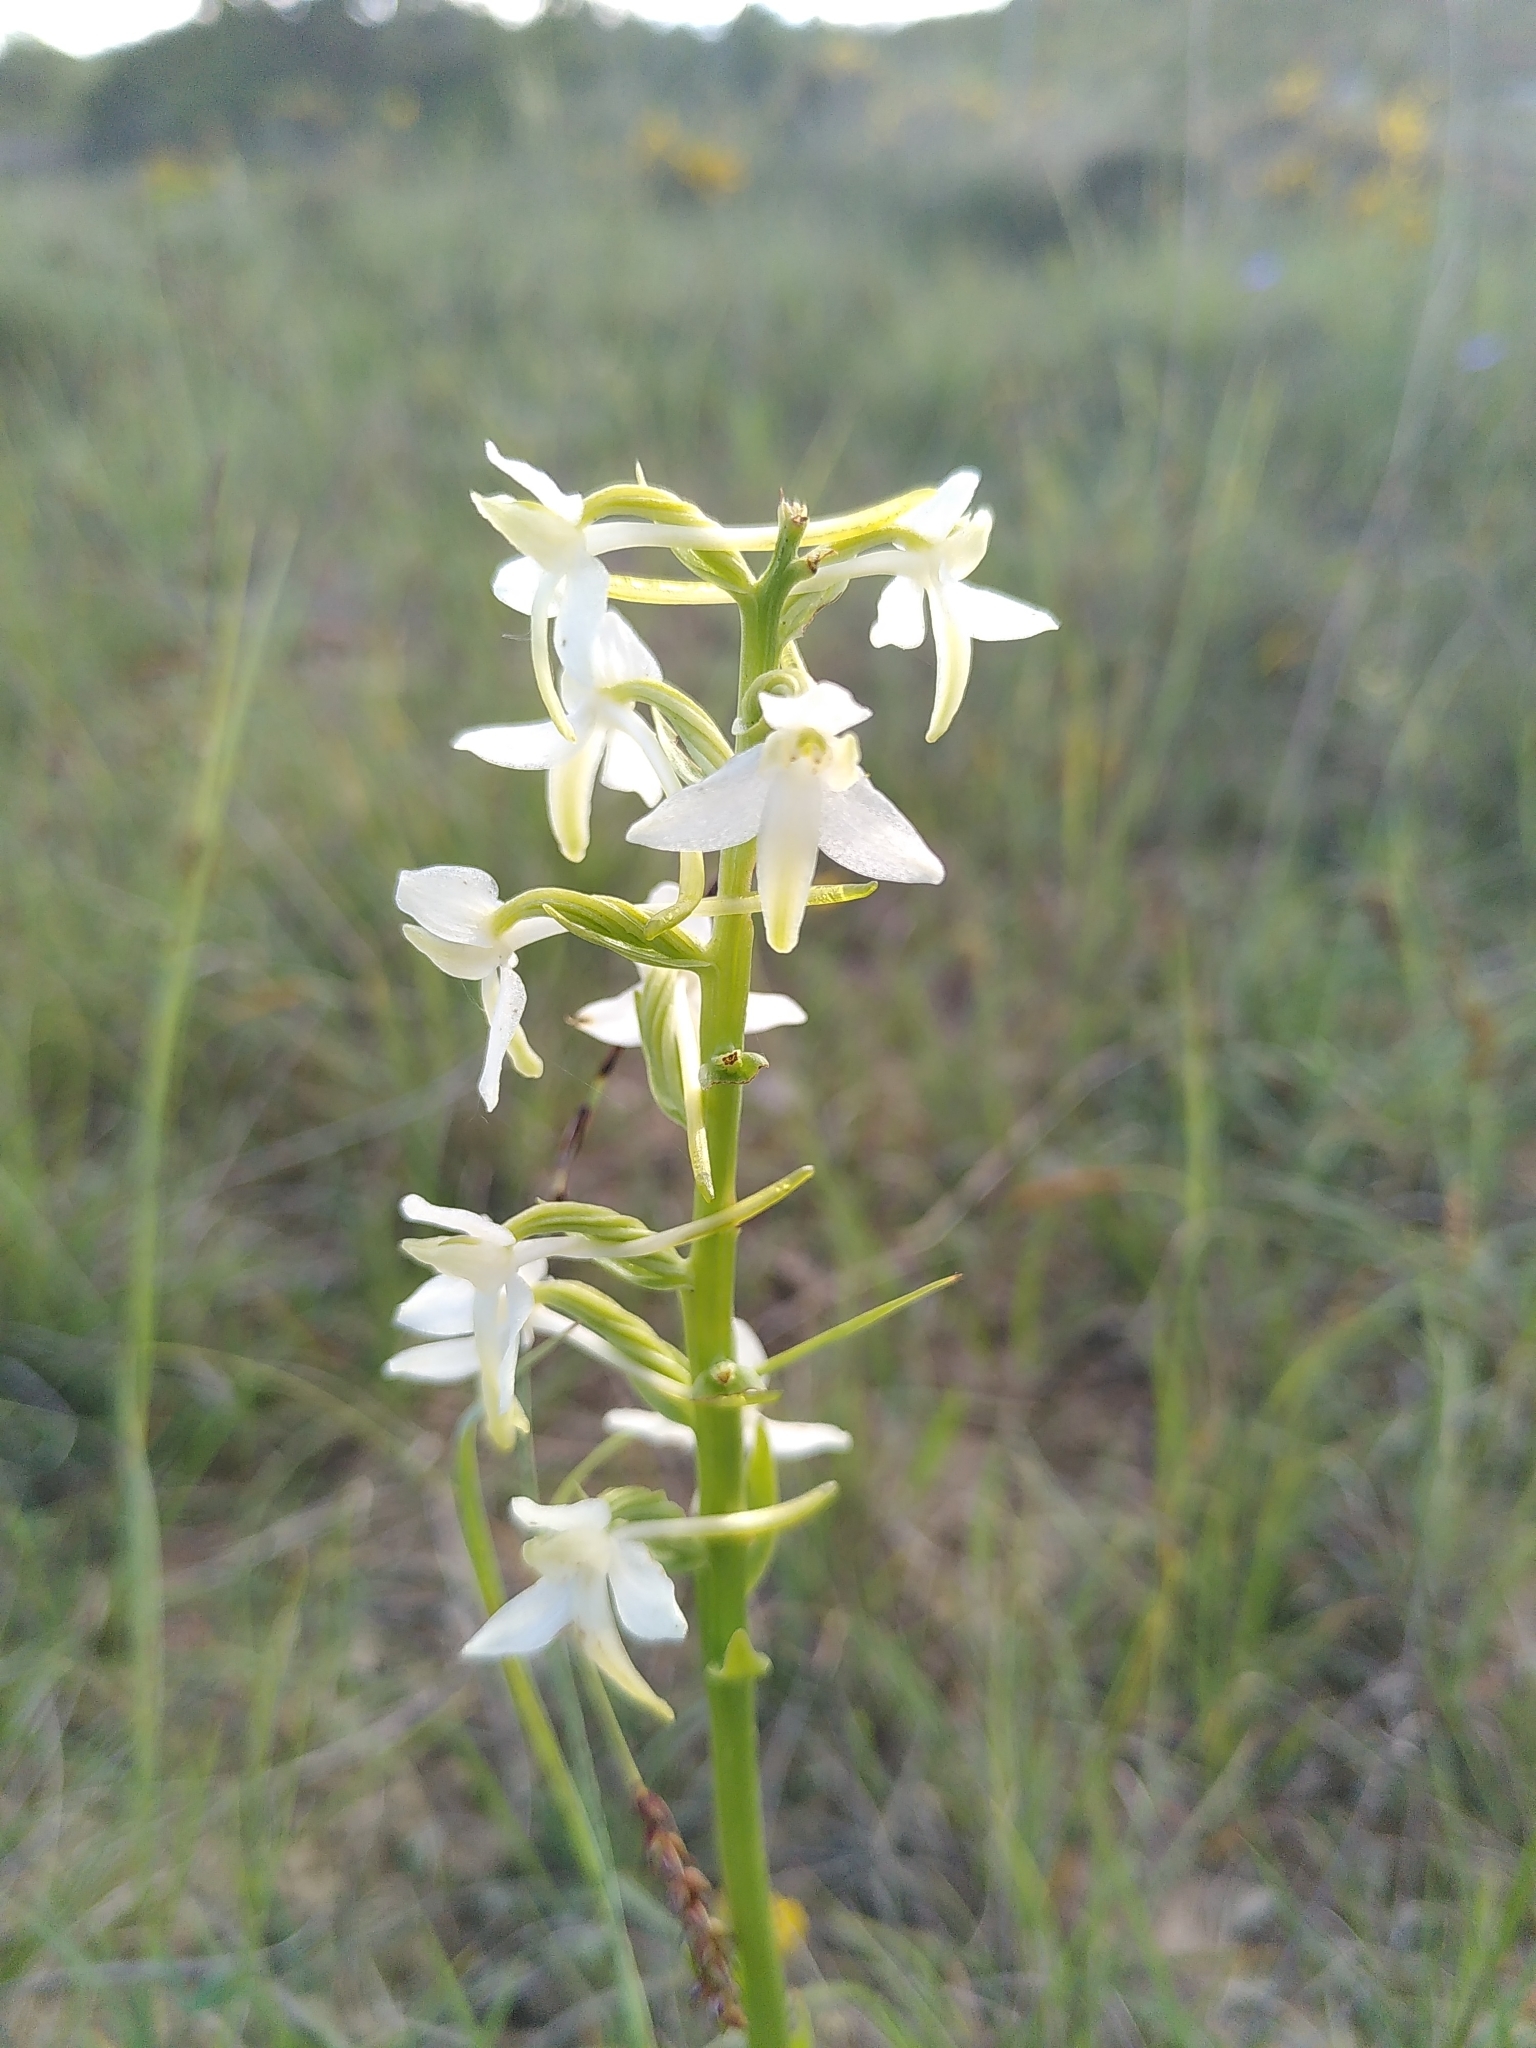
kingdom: Plantae
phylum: Tracheophyta
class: Liliopsida
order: Asparagales
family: Orchidaceae
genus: Platanthera
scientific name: Platanthera bifolia
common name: Lesser butterfly-orchid
